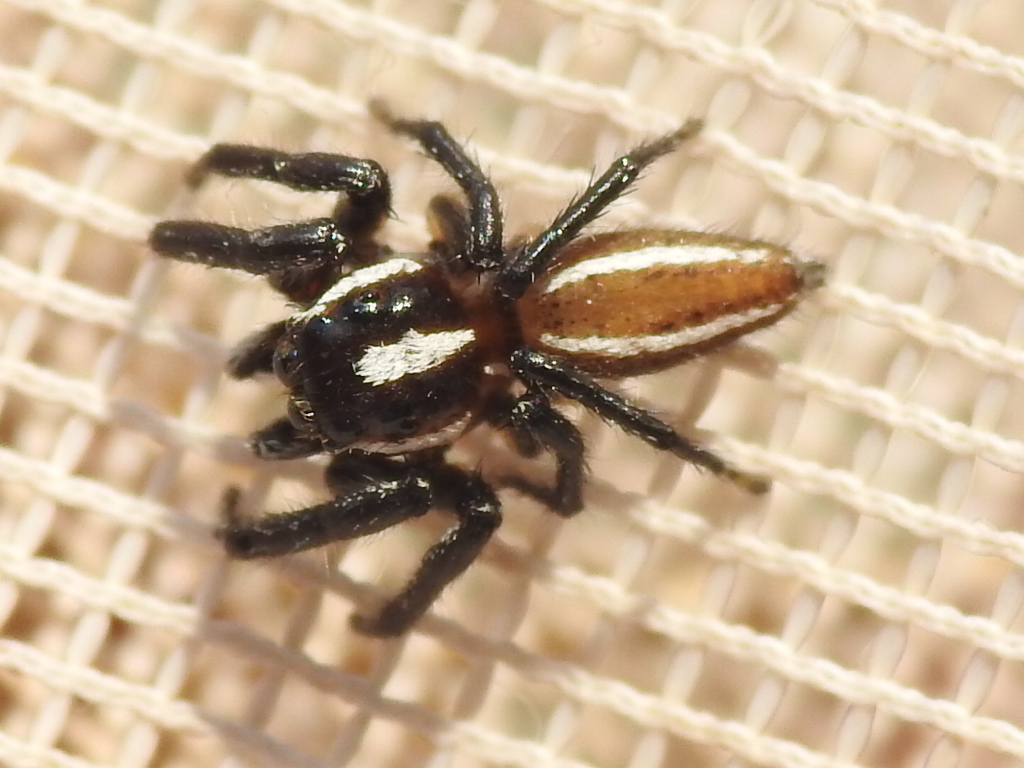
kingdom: Animalia
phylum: Arthropoda
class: Arachnida
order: Araneae
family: Salticidae
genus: Colonus
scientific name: Colonus puerperus
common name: Jumping spiders
